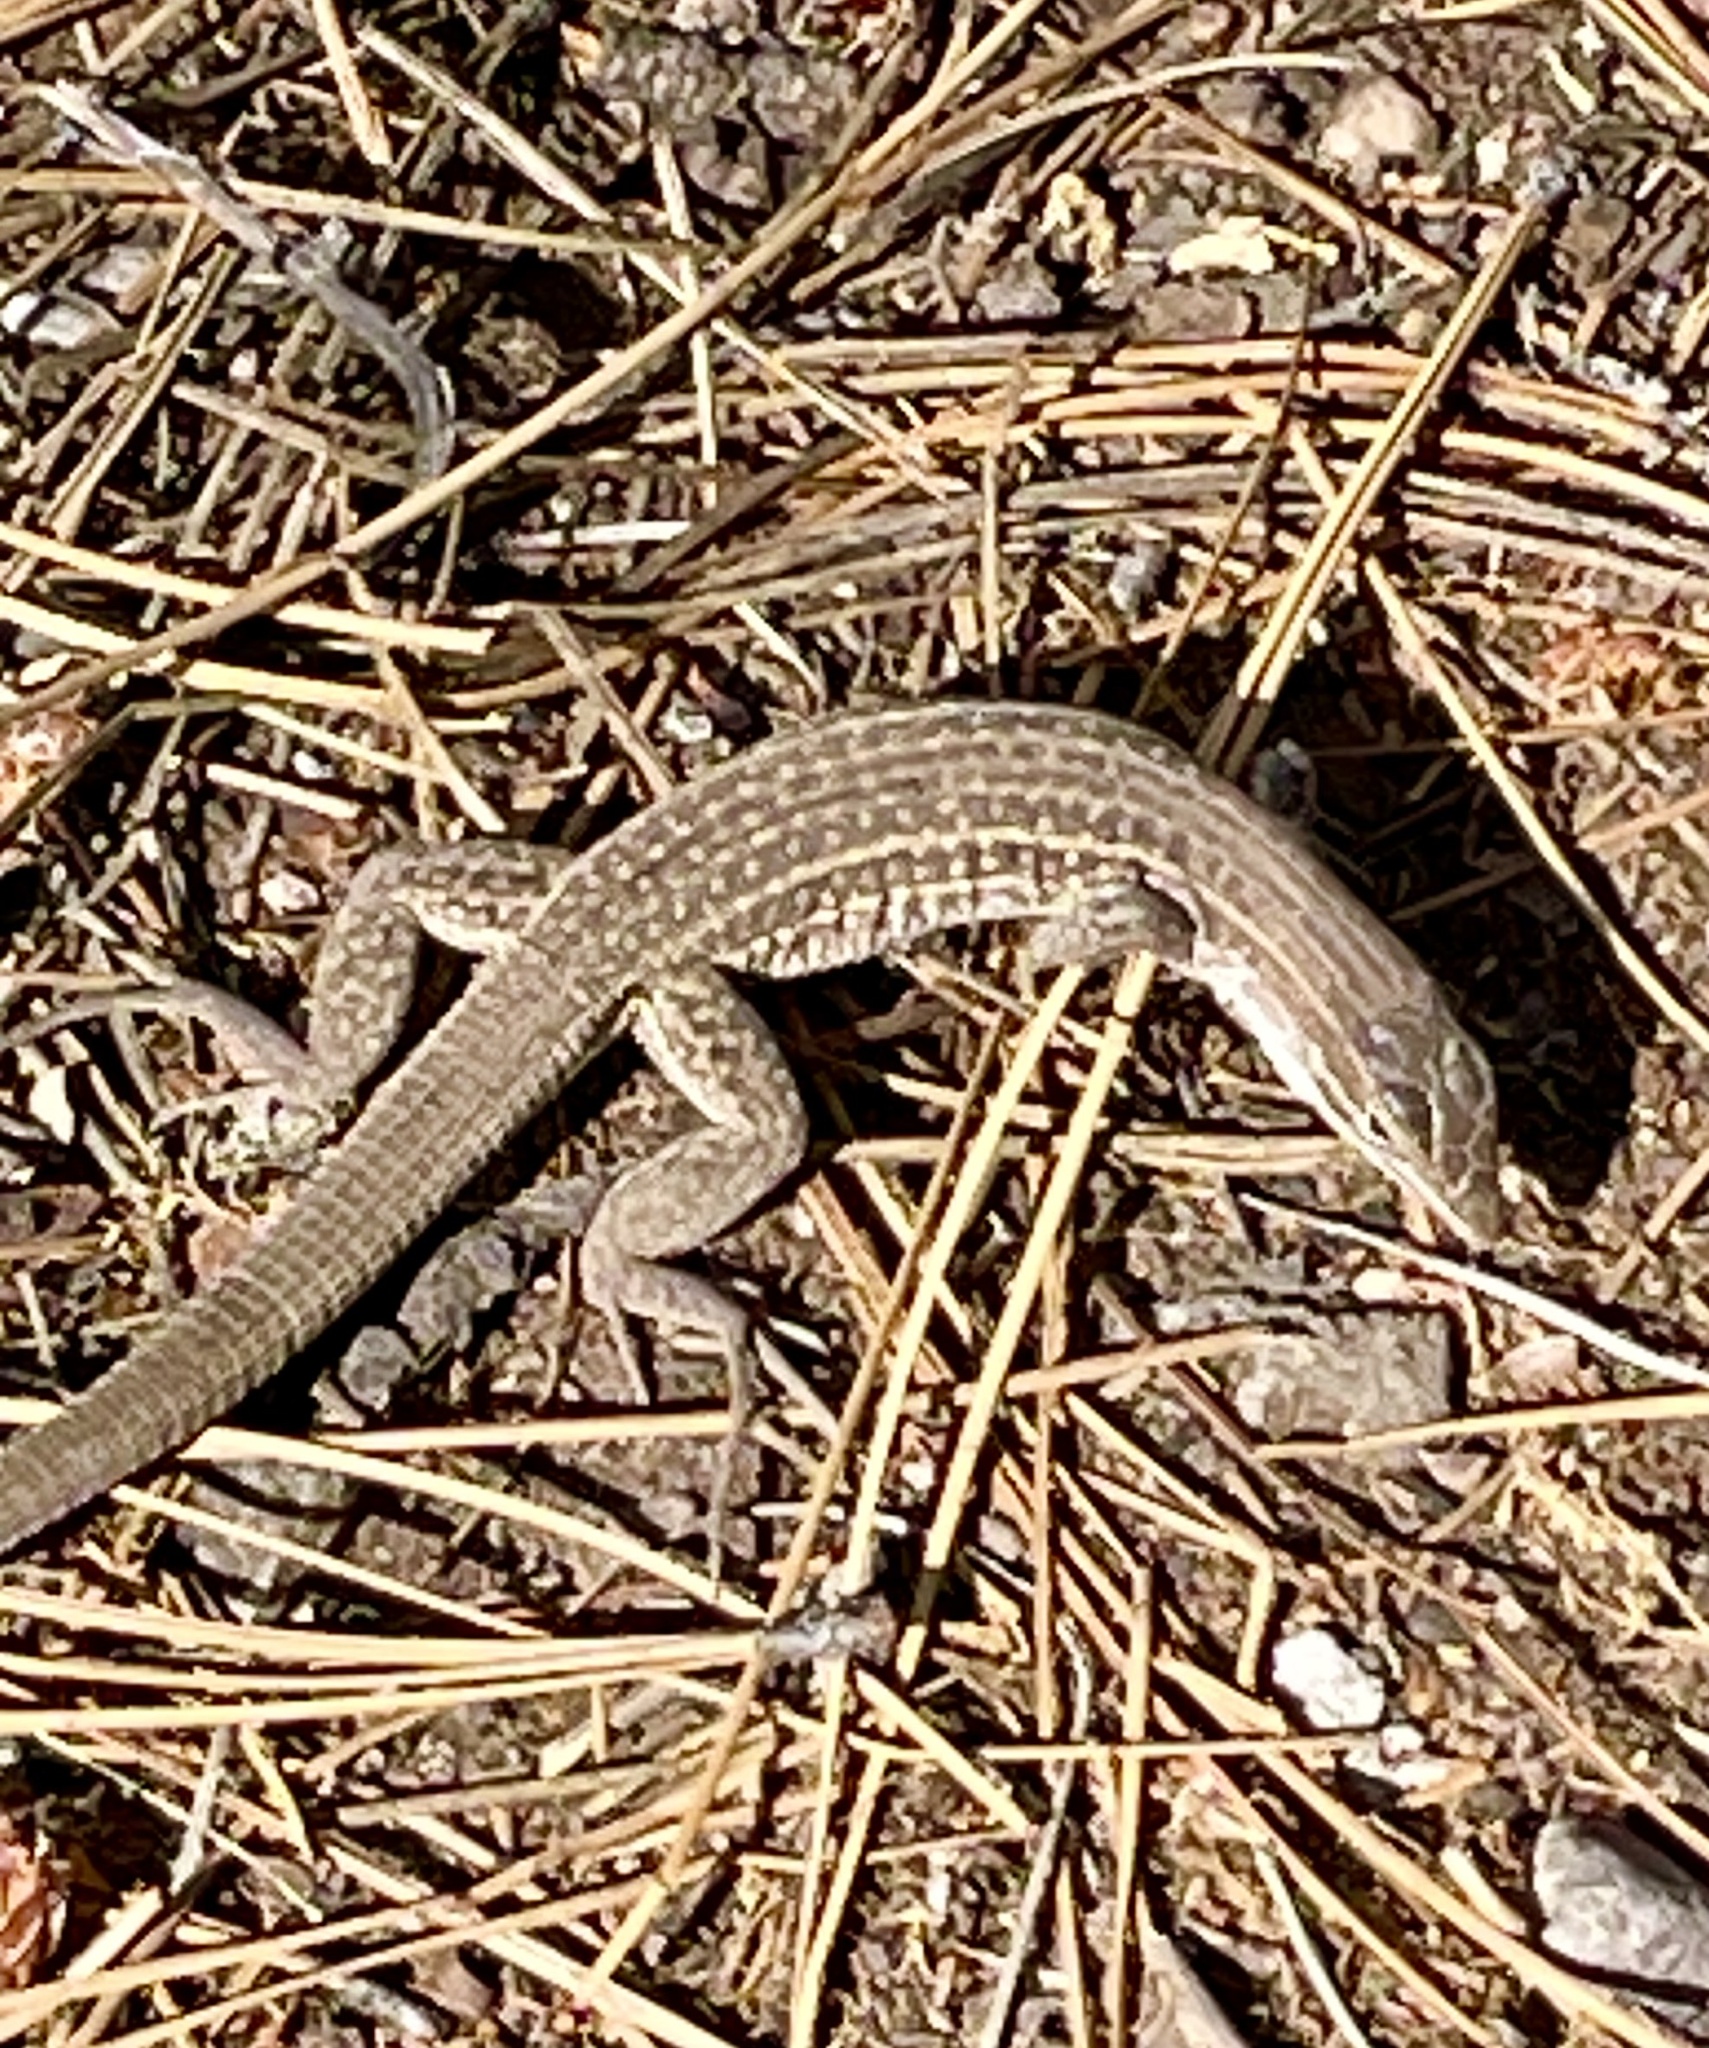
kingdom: Animalia
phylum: Chordata
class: Squamata
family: Teiidae
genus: Aspidoscelis
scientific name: Aspidoscelis exsanguis
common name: Chihuahuan spotted whiptail
